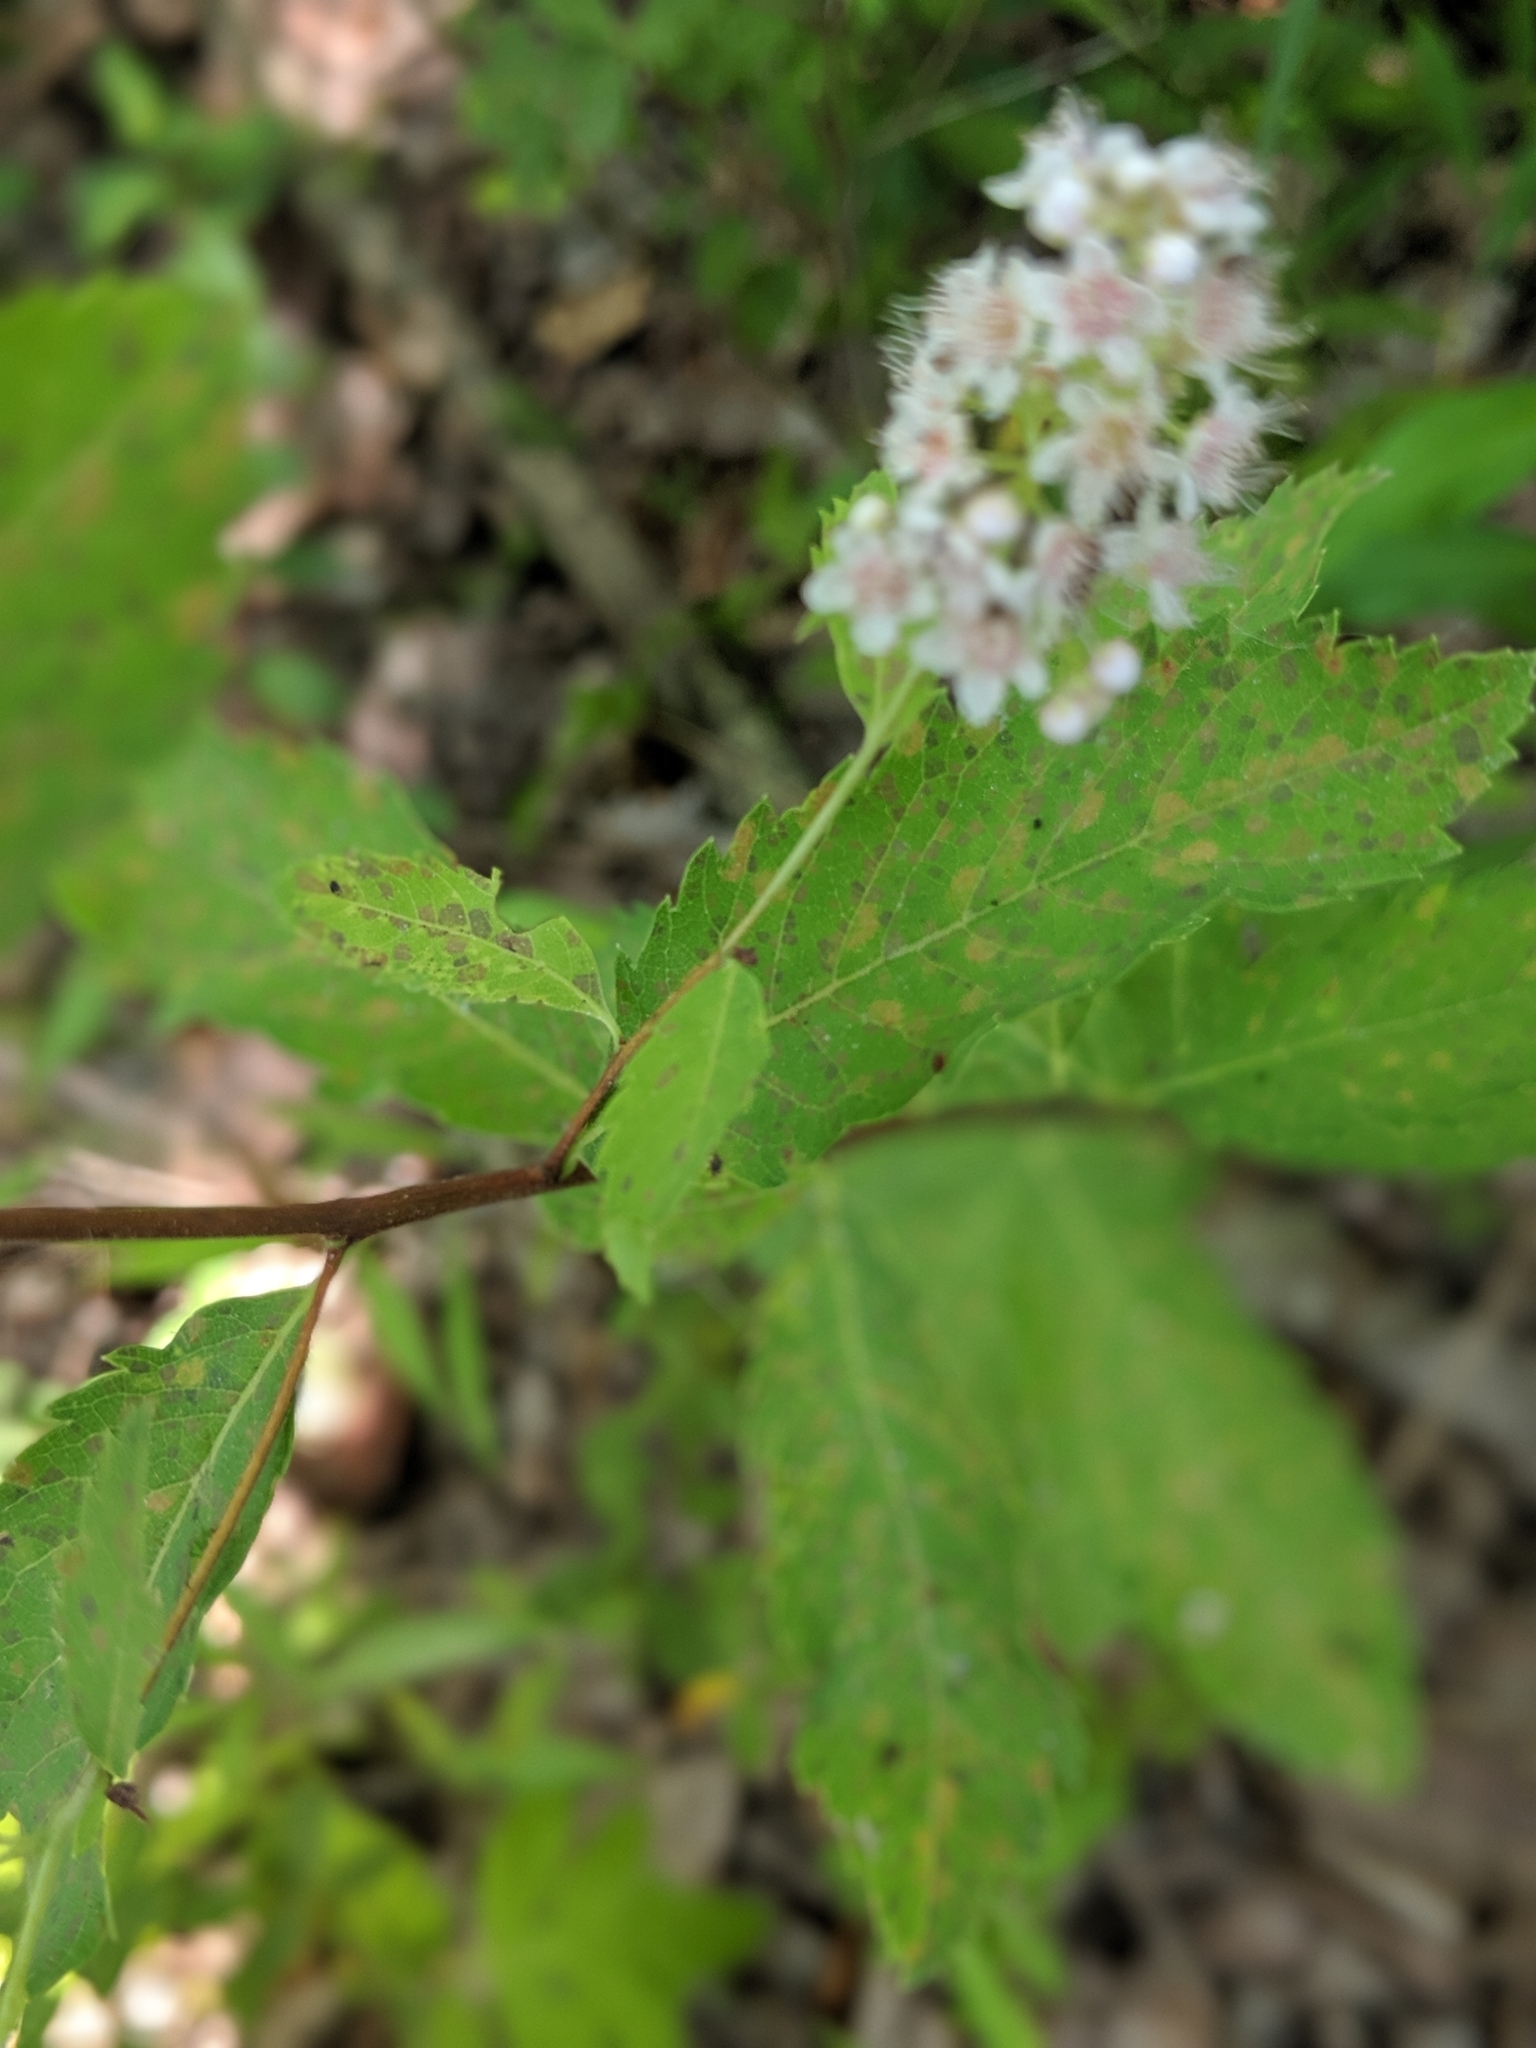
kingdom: Plantae
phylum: Tracheophyta
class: Magnoliopsida
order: Rosales
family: Rosaceae
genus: Spiraea
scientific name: Spiraea alba
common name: Pale bridewort
